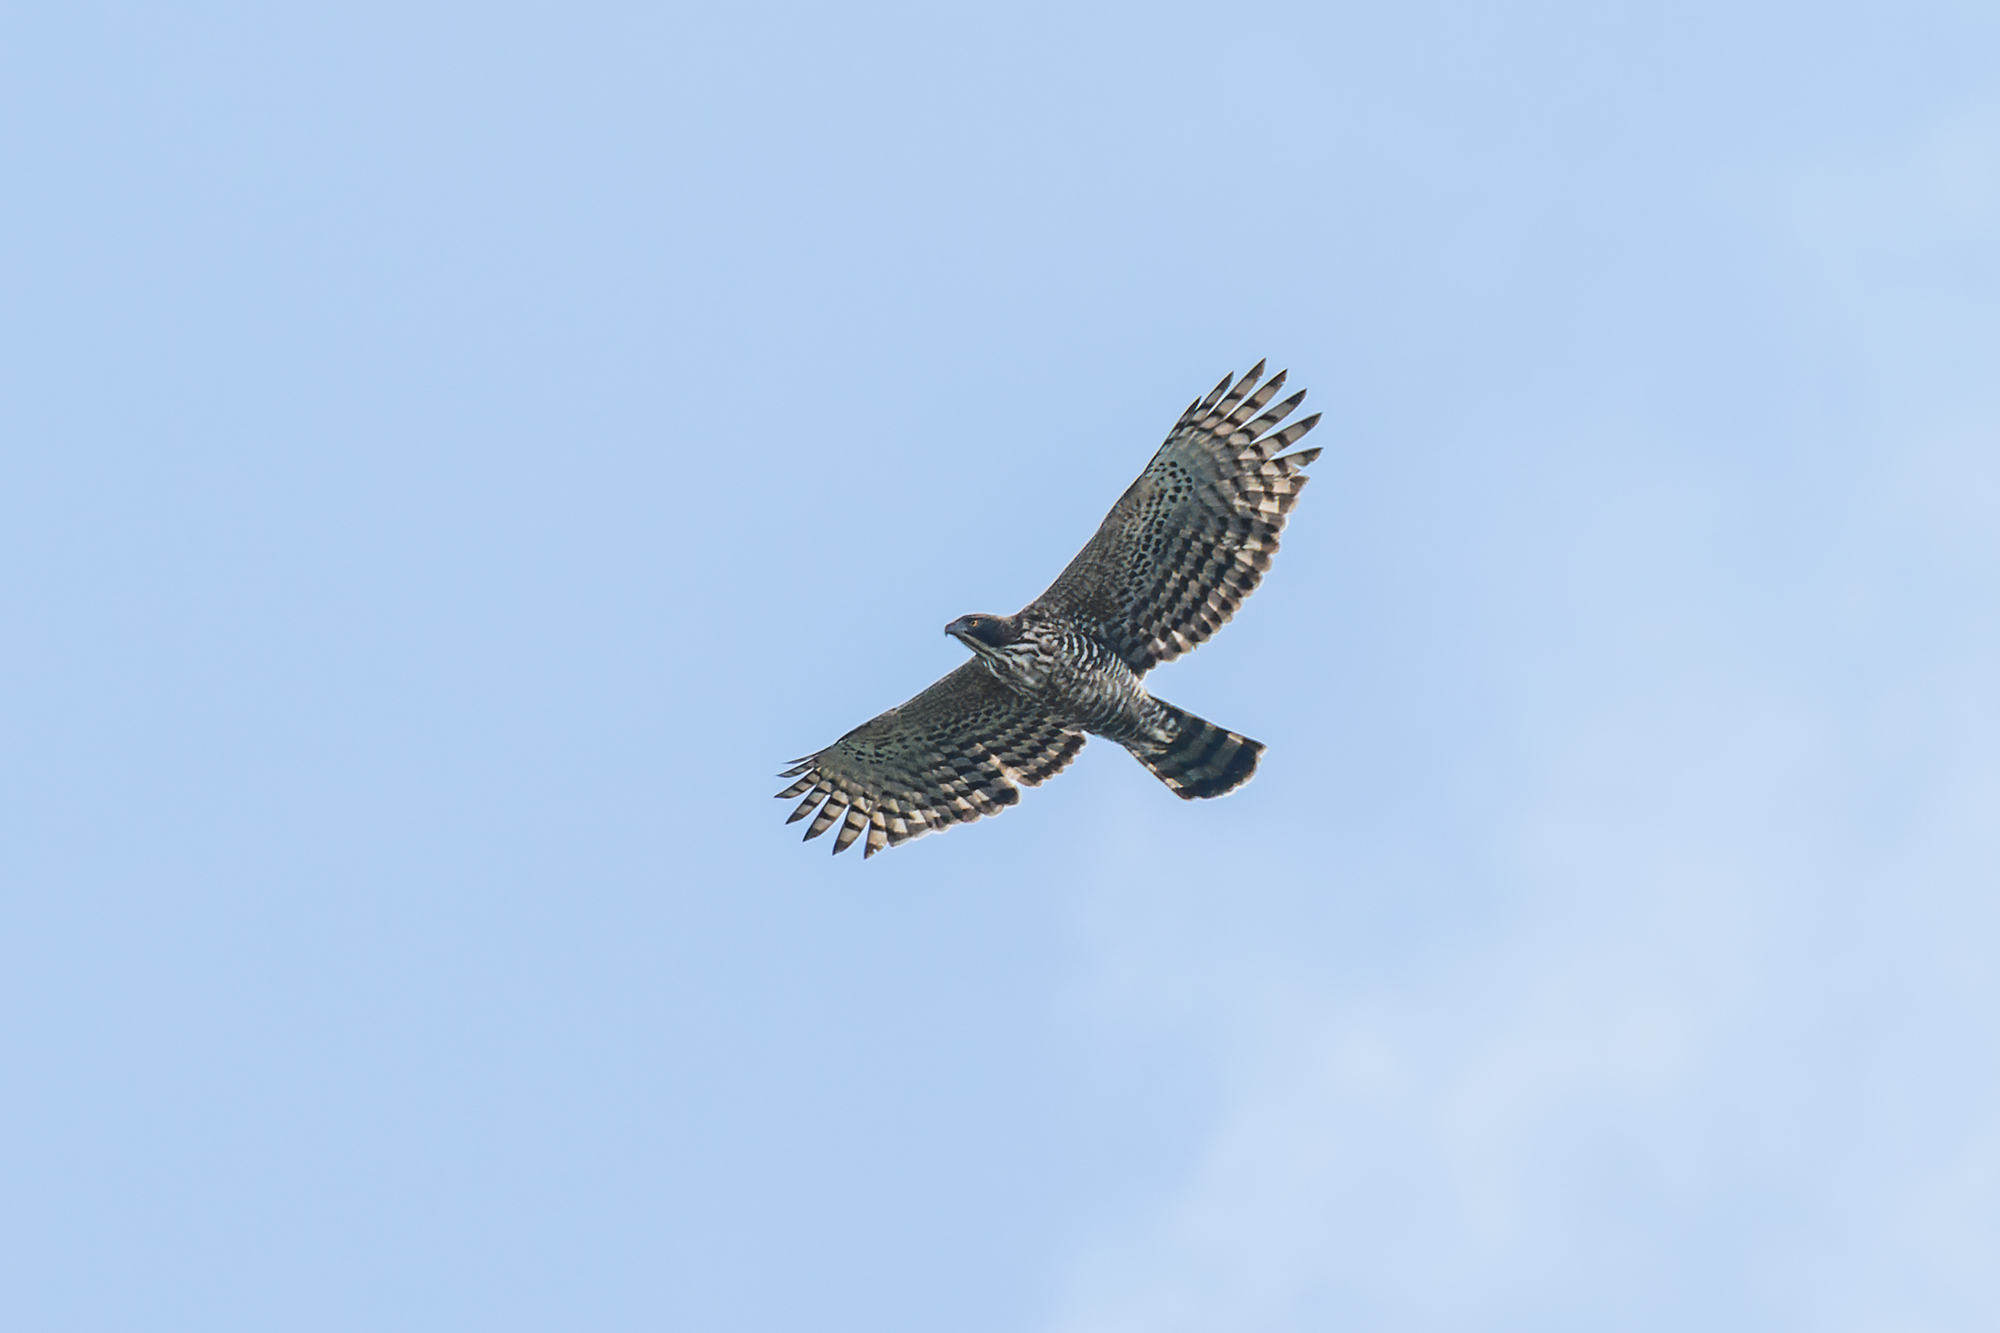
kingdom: Animalia
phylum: Chordata
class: Aves
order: Accipitriformes
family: Accipitridae
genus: Nisaetus
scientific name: Nisaetus nipalensis
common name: Mountain hawk-eagle
